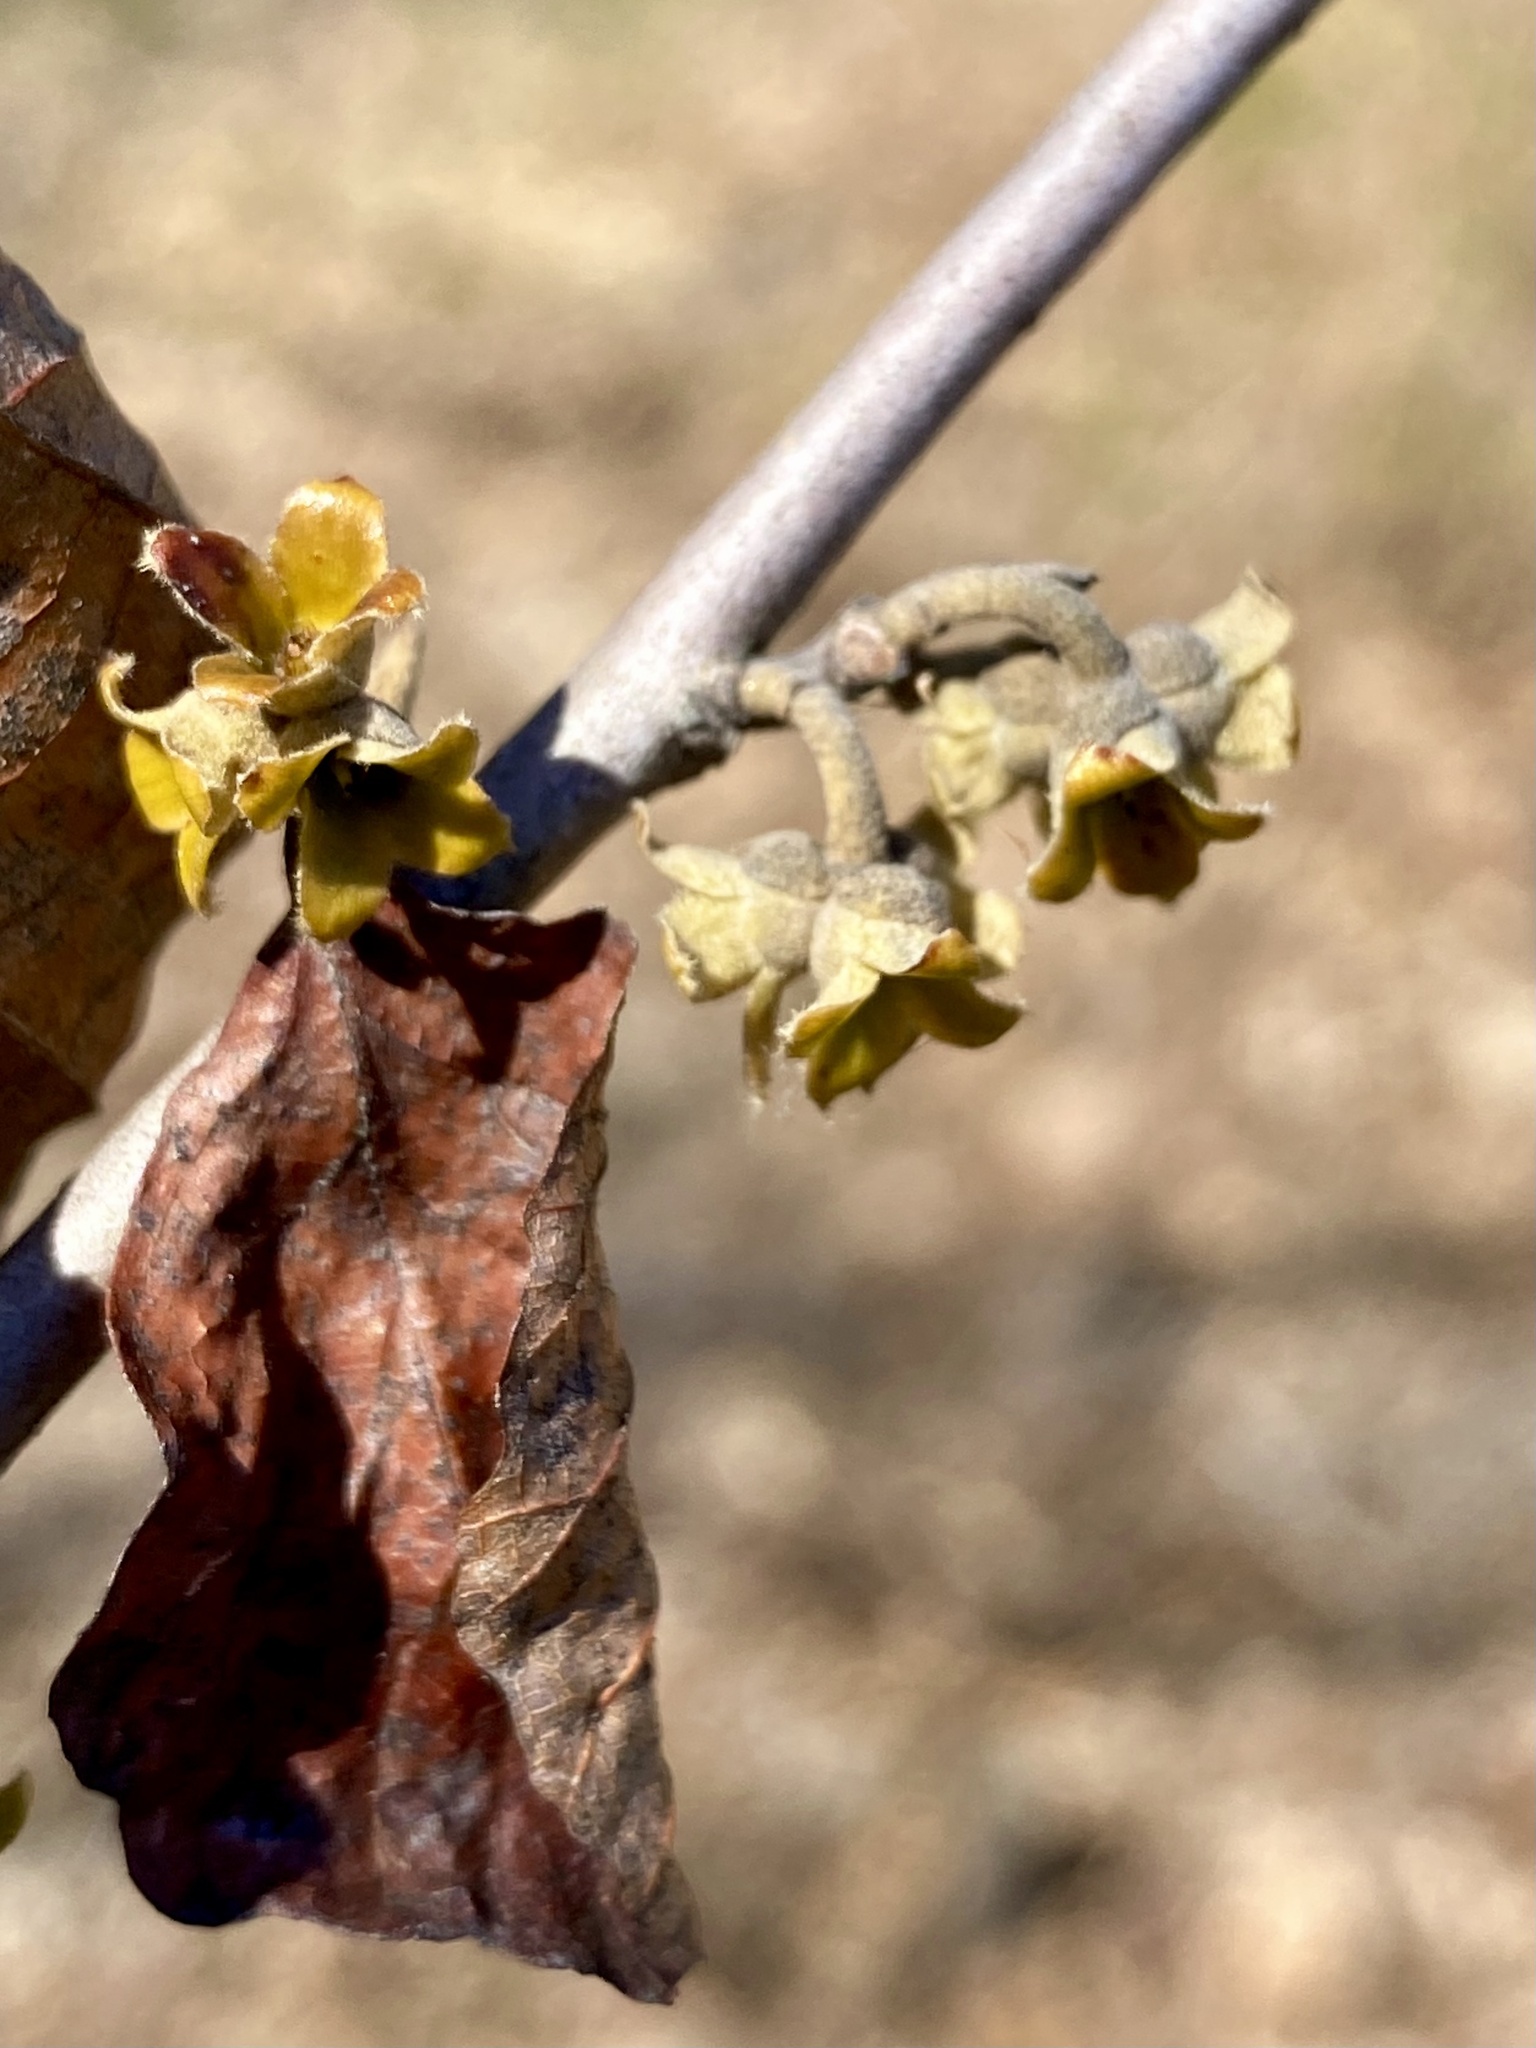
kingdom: Plantae
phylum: Tracheophyta
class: Magnoliopsida
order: Saxifragales
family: Hamamelidaceae
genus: Hamamelis
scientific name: Hamamelis virginiana
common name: Witch-hazel
